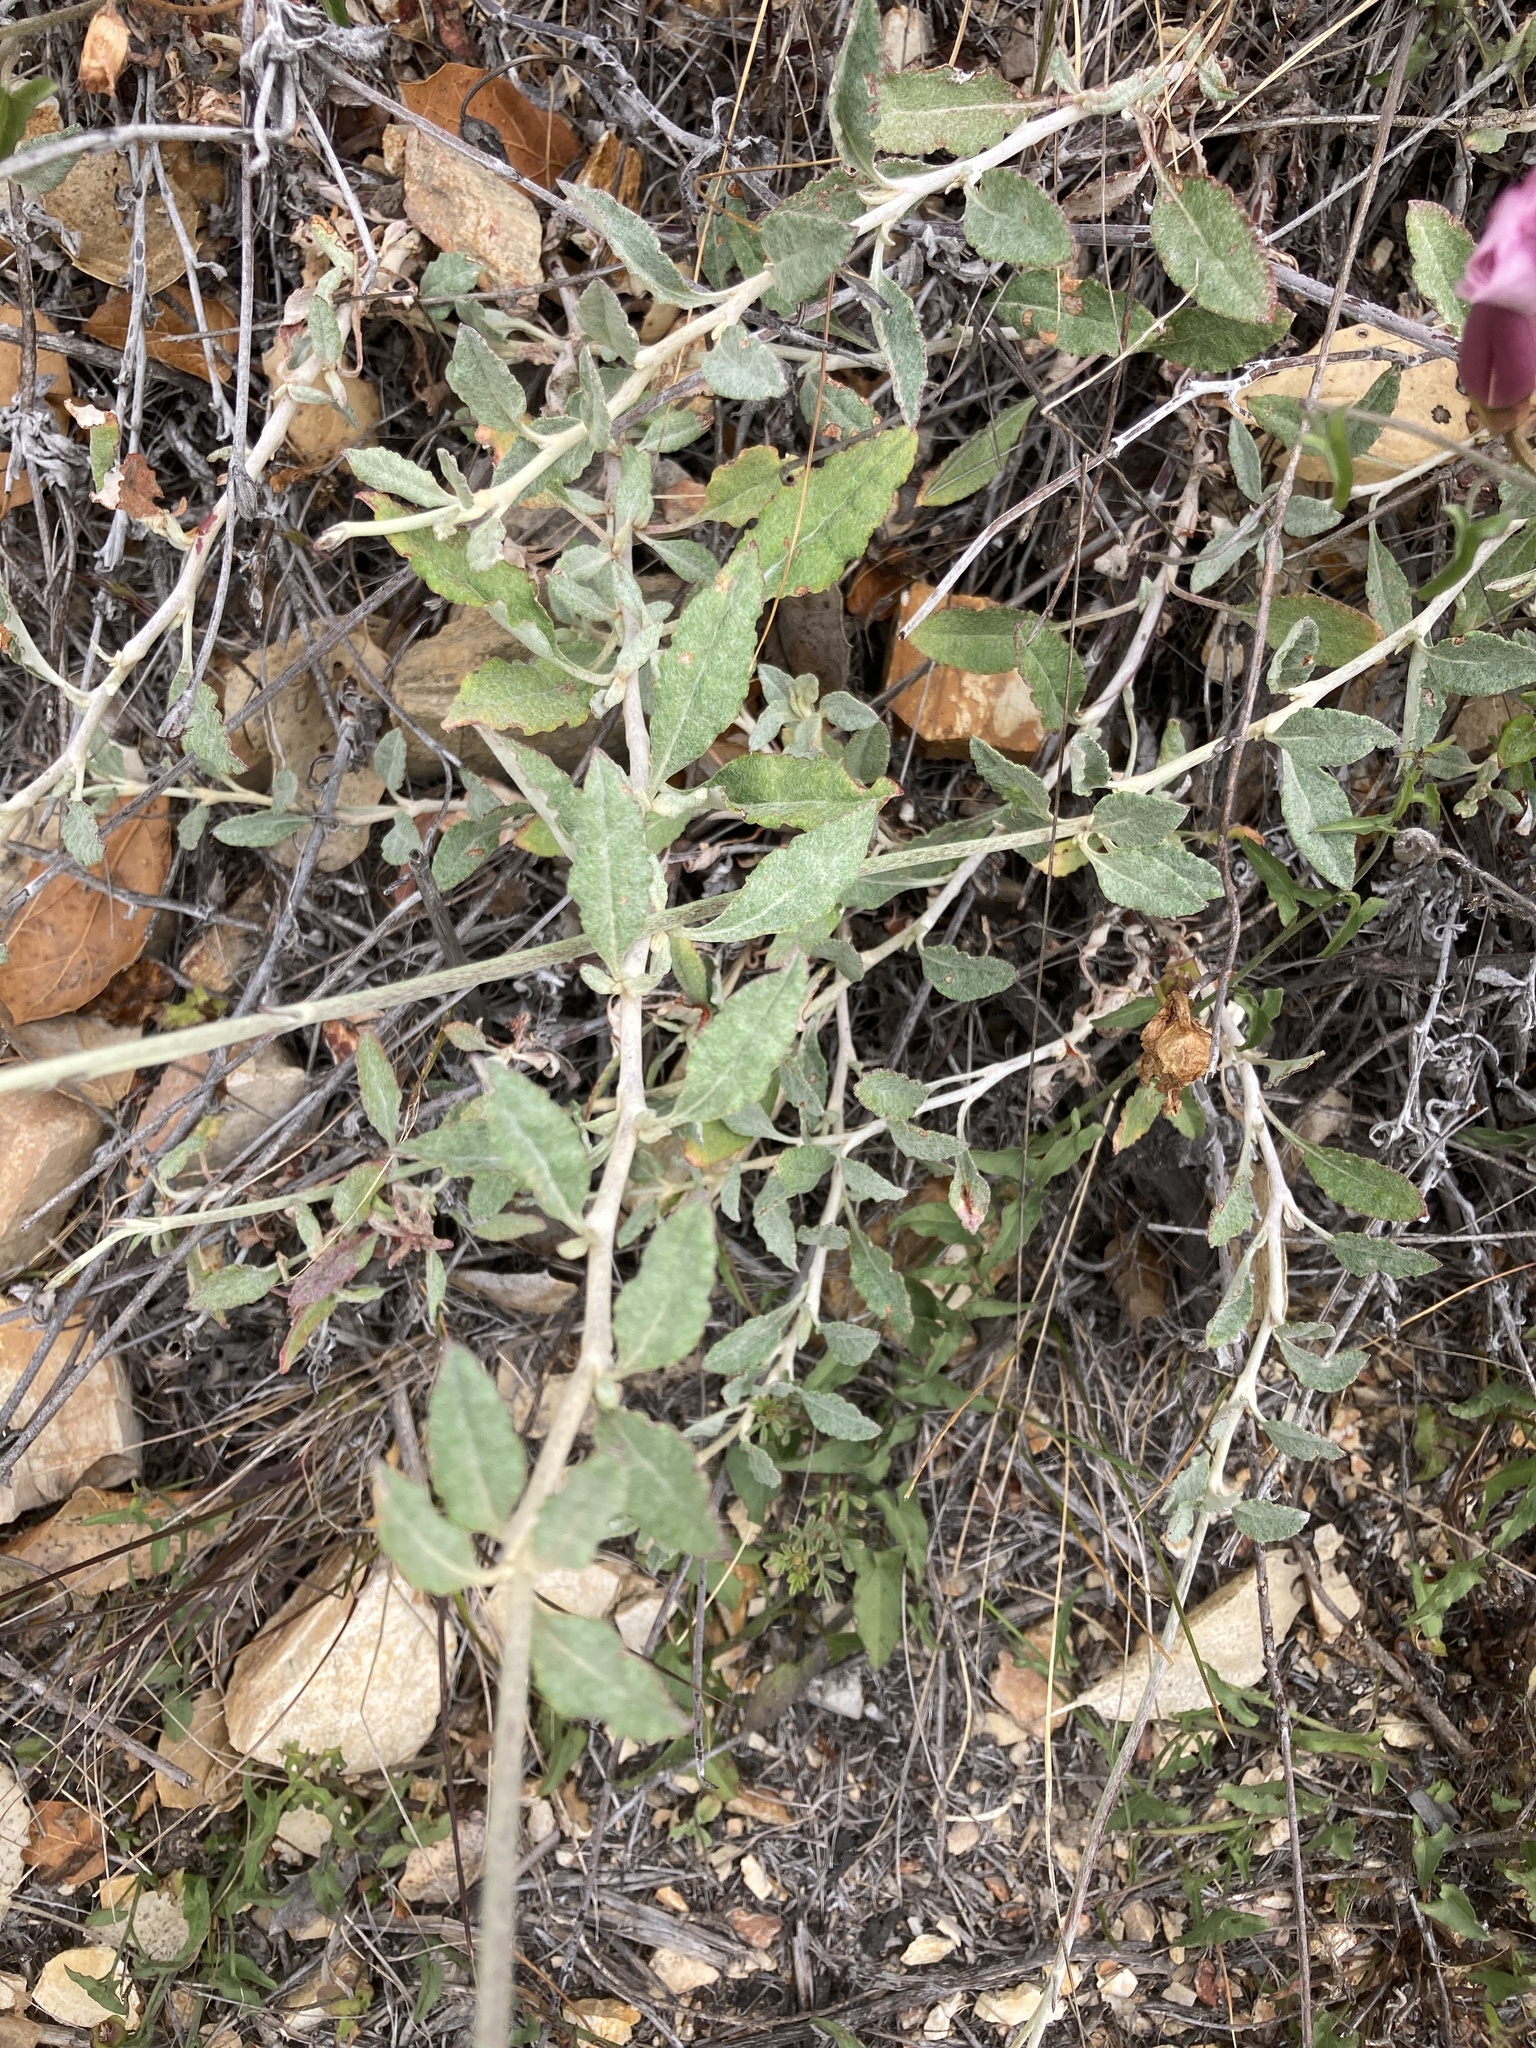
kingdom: Plantae
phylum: Tracheophyta
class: Magnoliopsida
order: Caryophyllales
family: Polygonaceae
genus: Eriogonum
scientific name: Eriogonum elongatum
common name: Long-stem wild buckwheat
